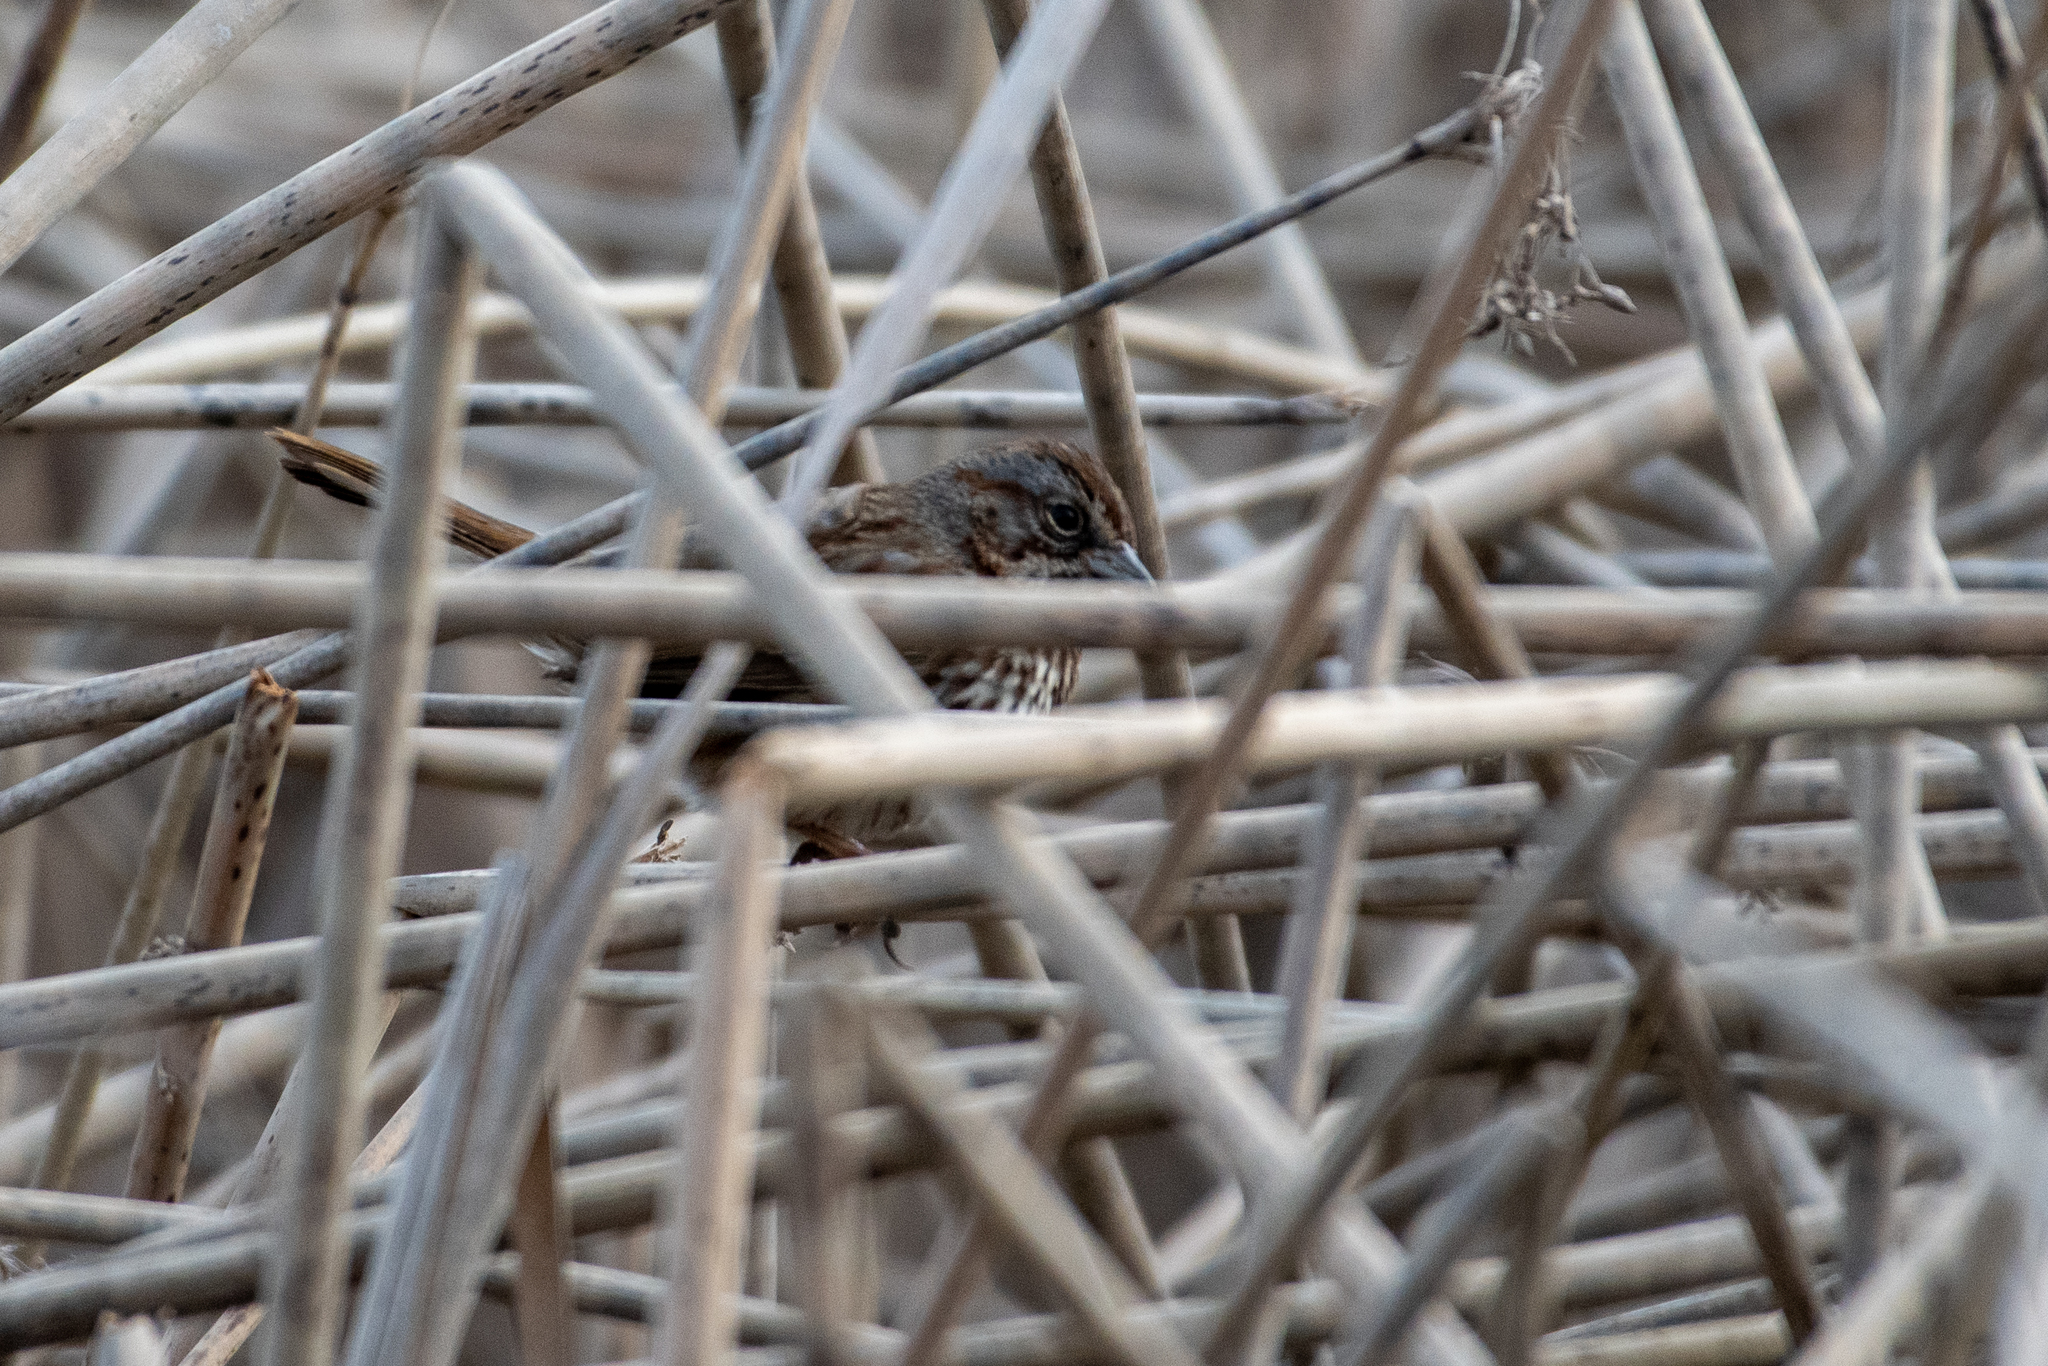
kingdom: Animalia
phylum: Chordata
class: Aves
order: Passeriformes
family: Passerellidae
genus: Melospiza
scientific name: Melospiza melodia
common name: Song sparrow
